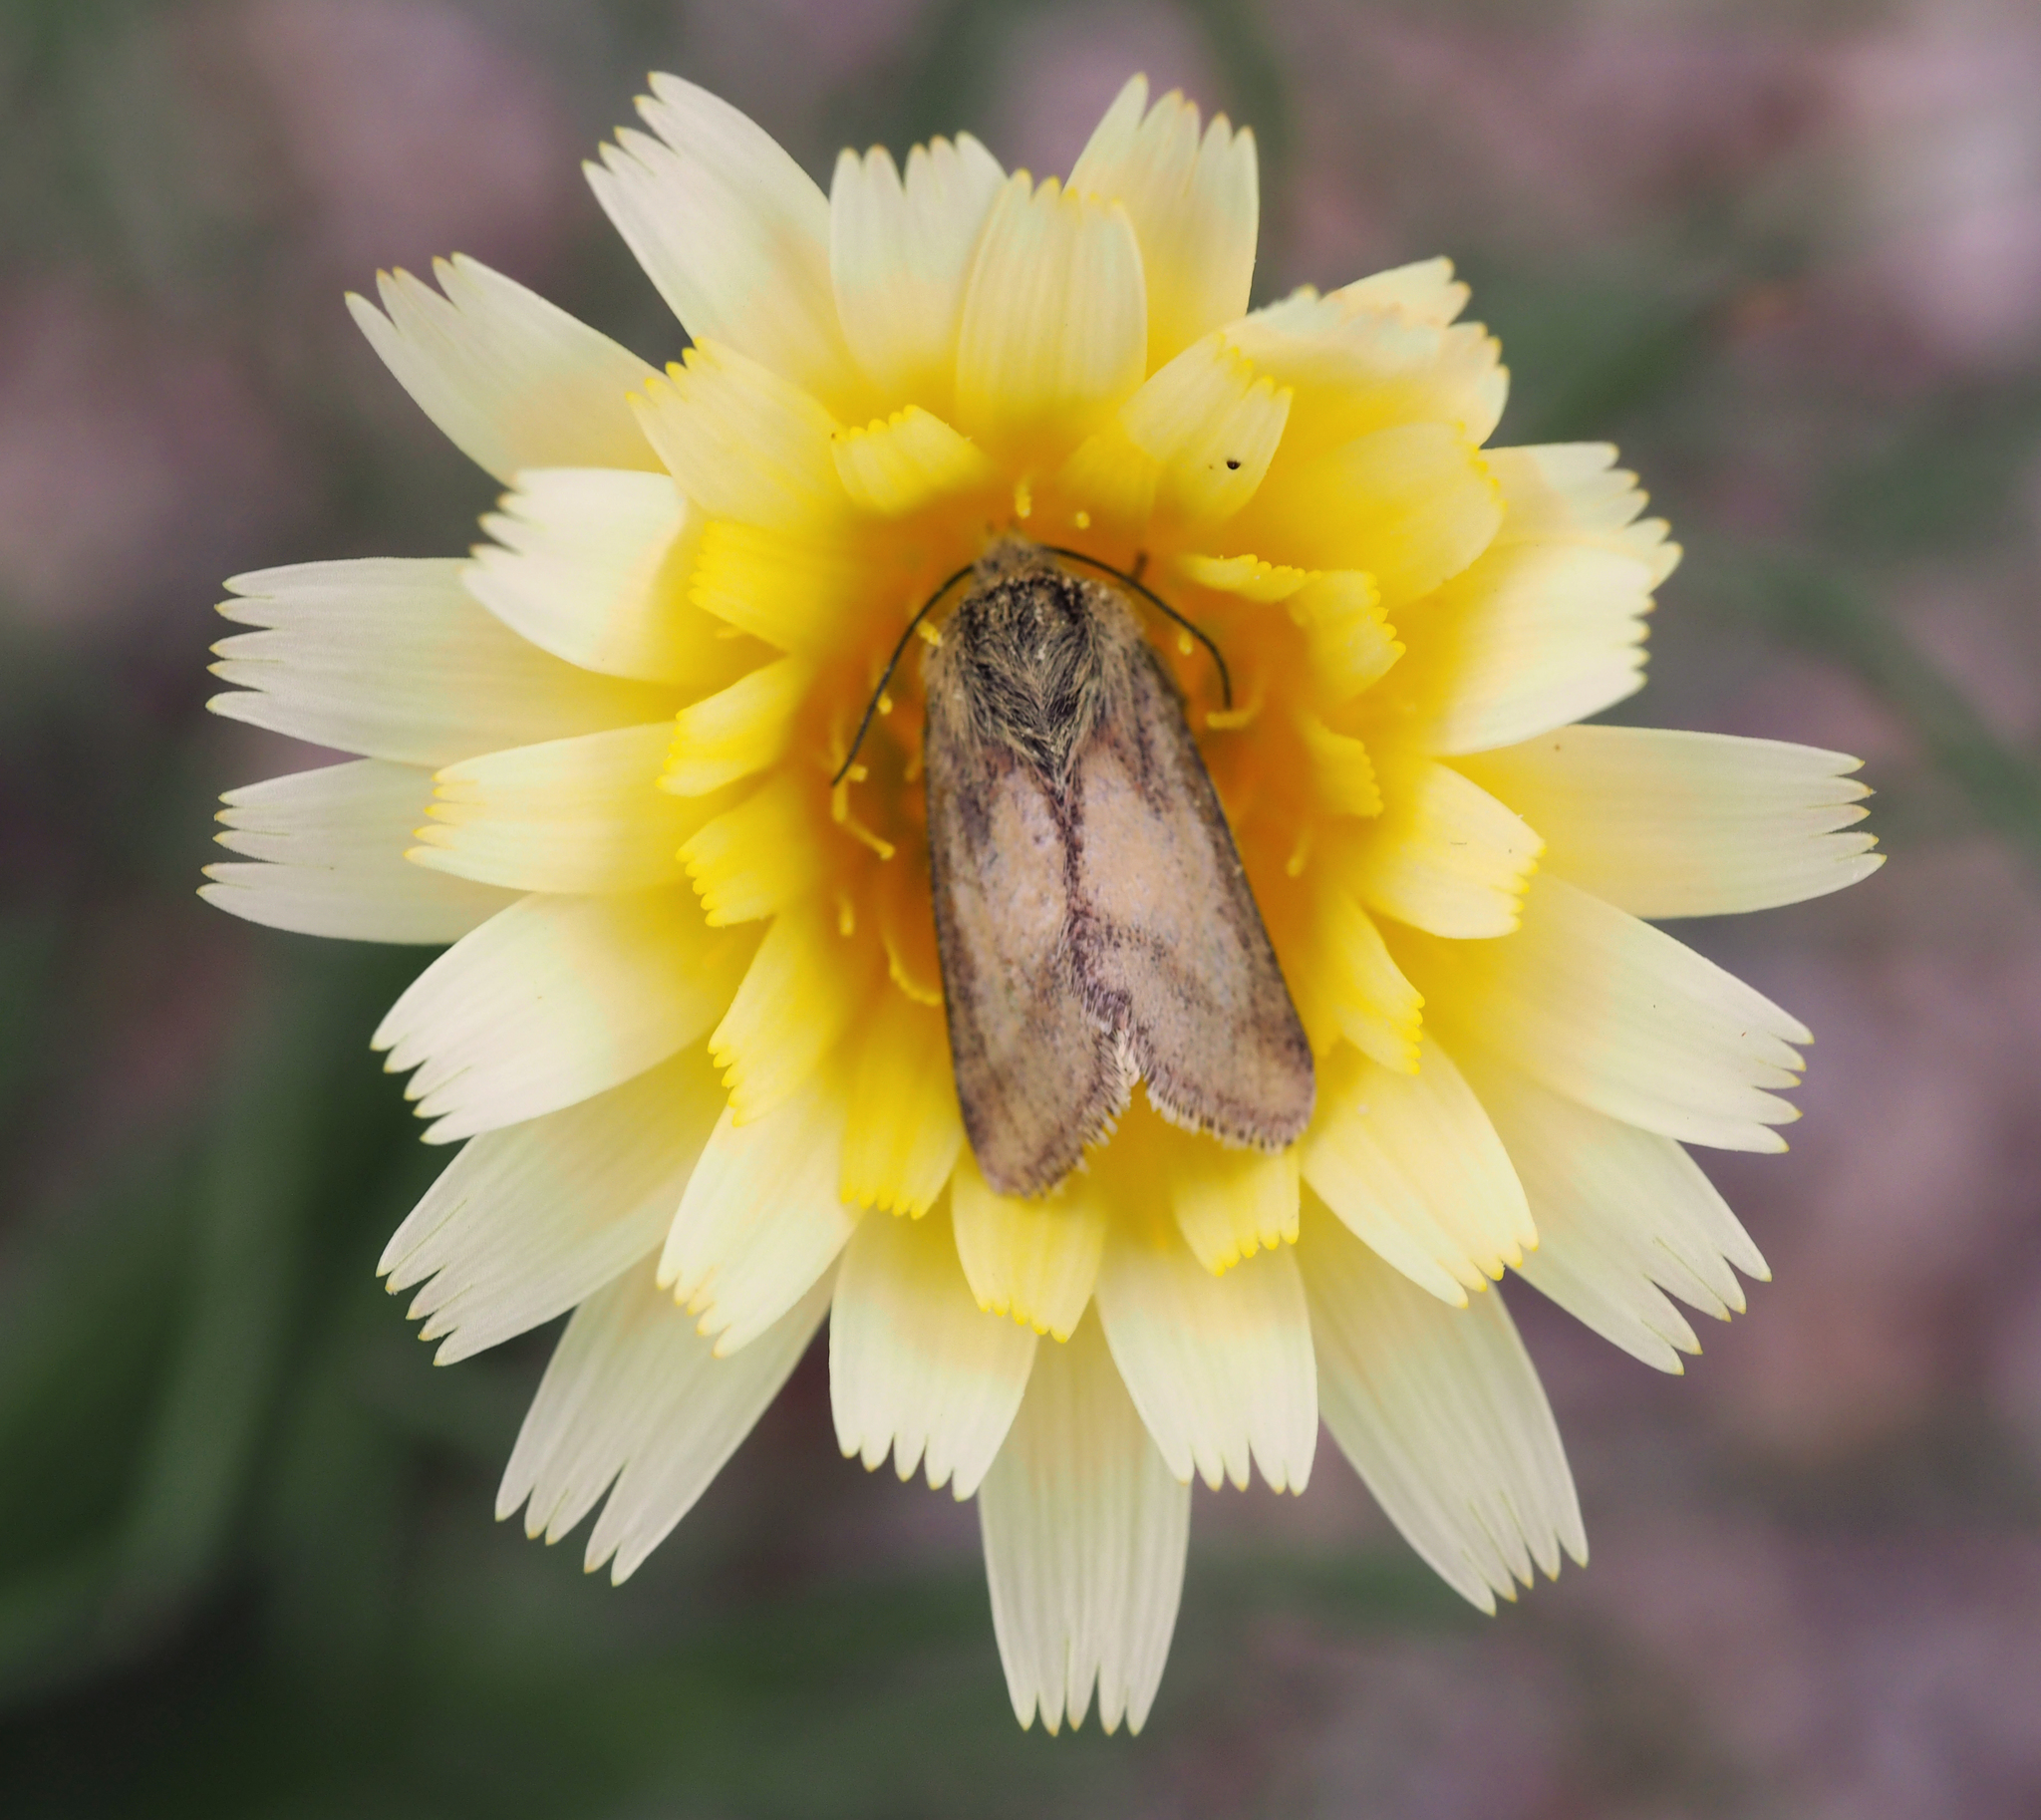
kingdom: Animalia
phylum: Arthropoda
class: Insecta
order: Lepidoptera
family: Noctuidae
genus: Heliolonche
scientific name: Heliolonche pictipennis
